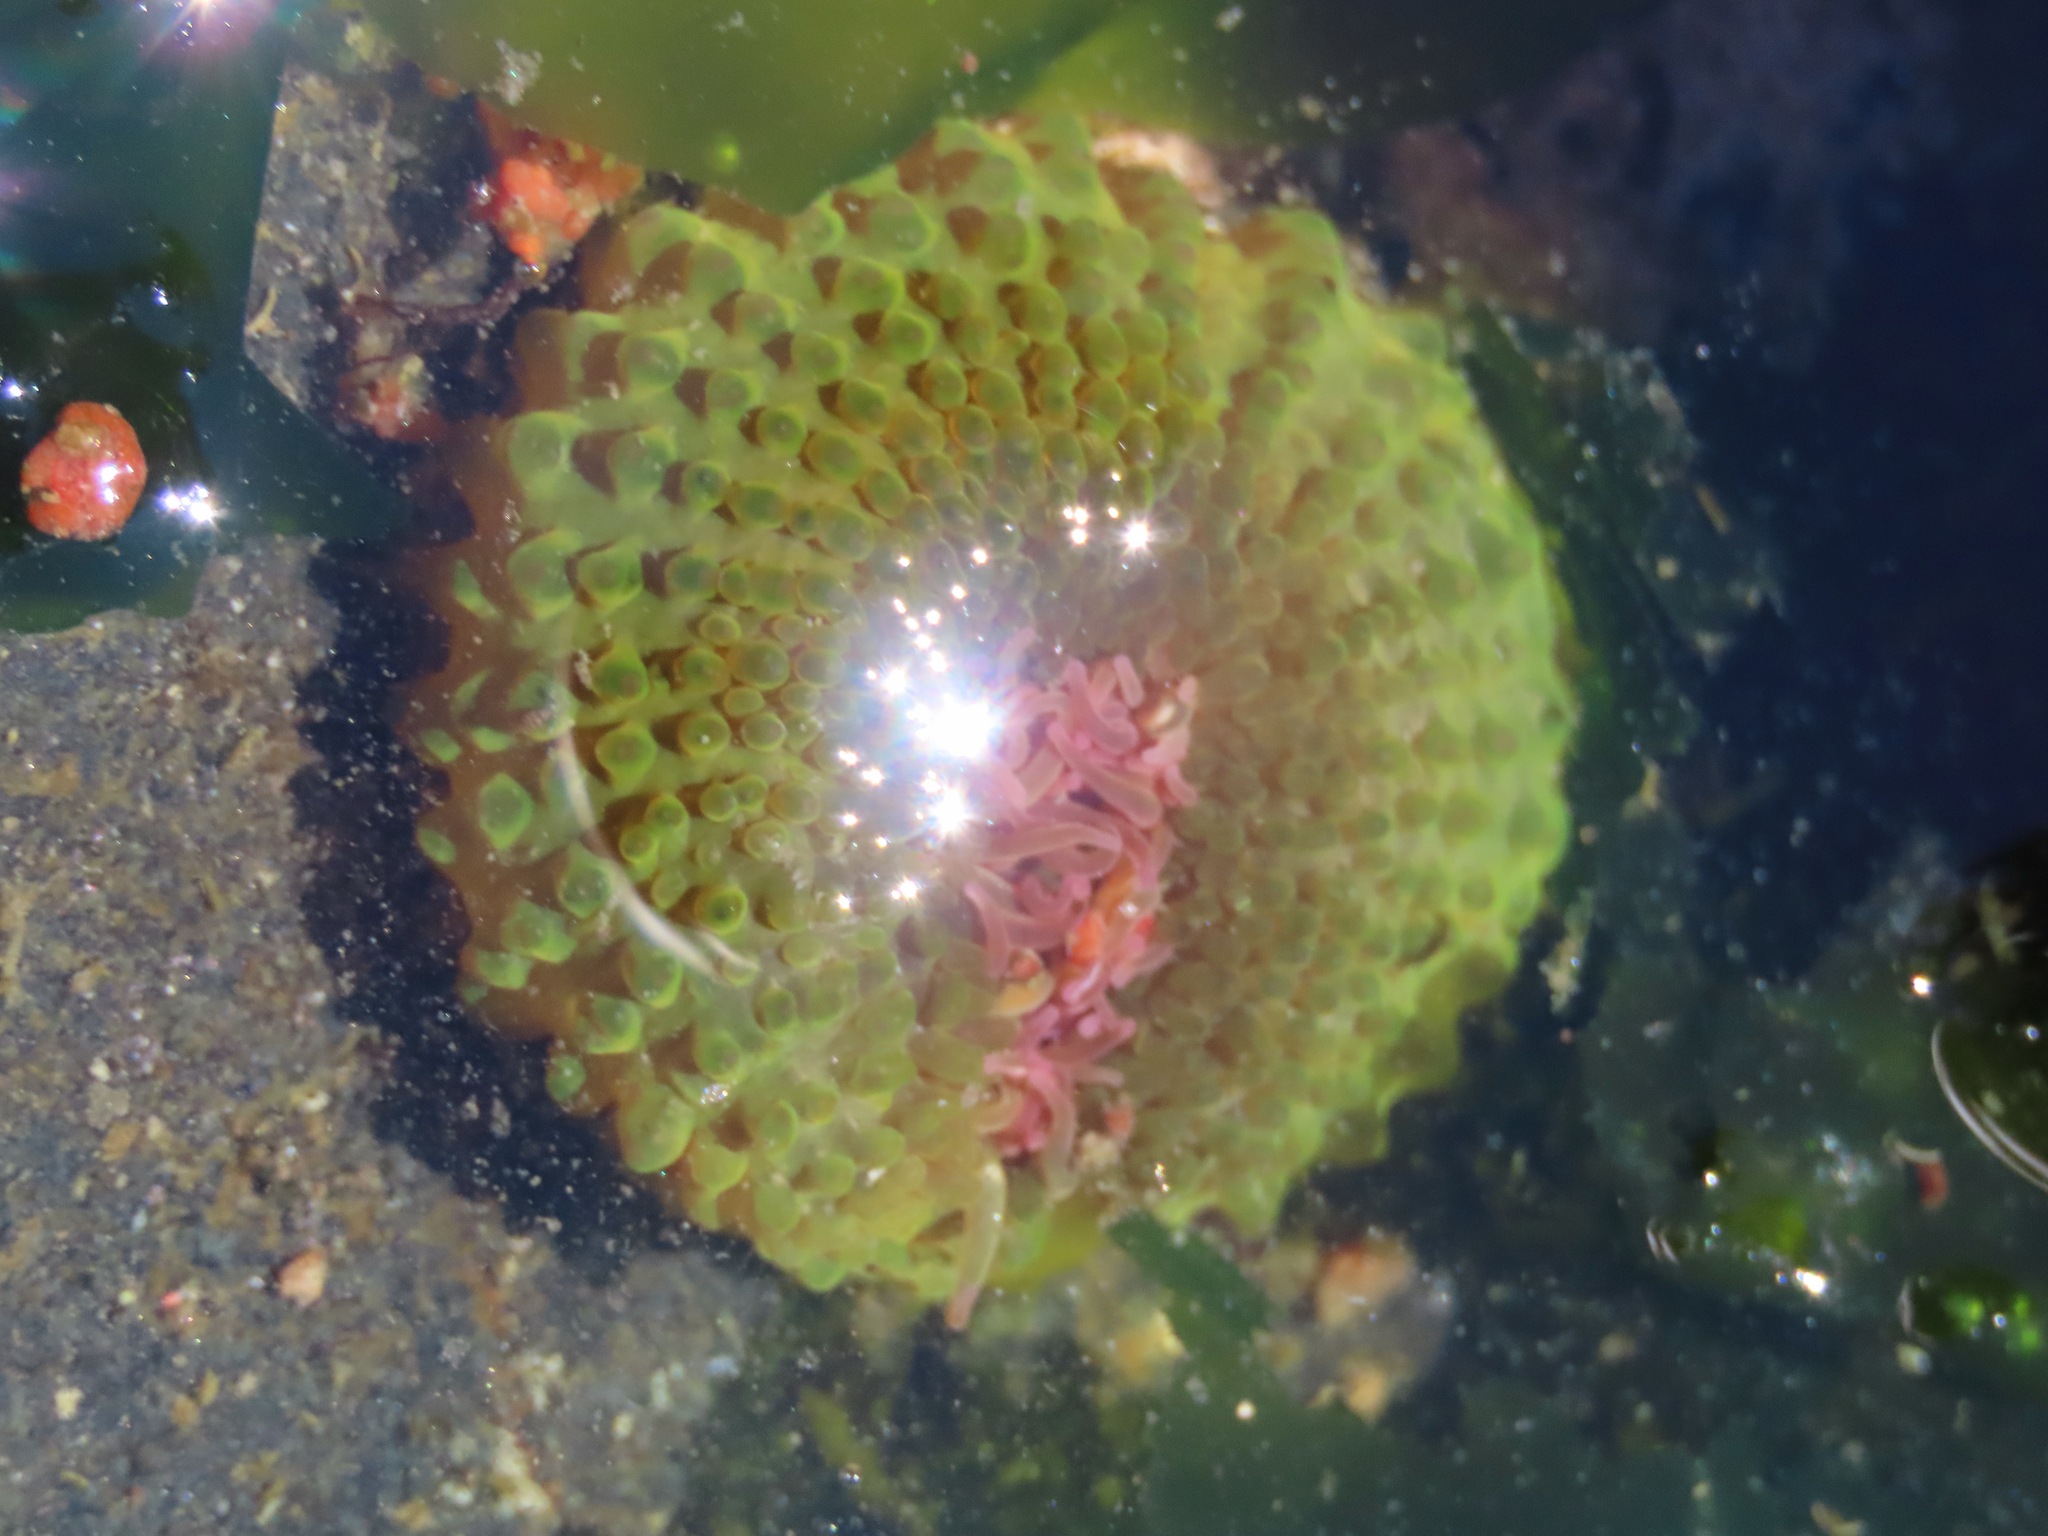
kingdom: Animalia
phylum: Cnidaria
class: Anthozoa
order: Actiniaria
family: Actiniidae
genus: Anthopleura
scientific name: Anthopleura elegantissima
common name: Clonal anemone
